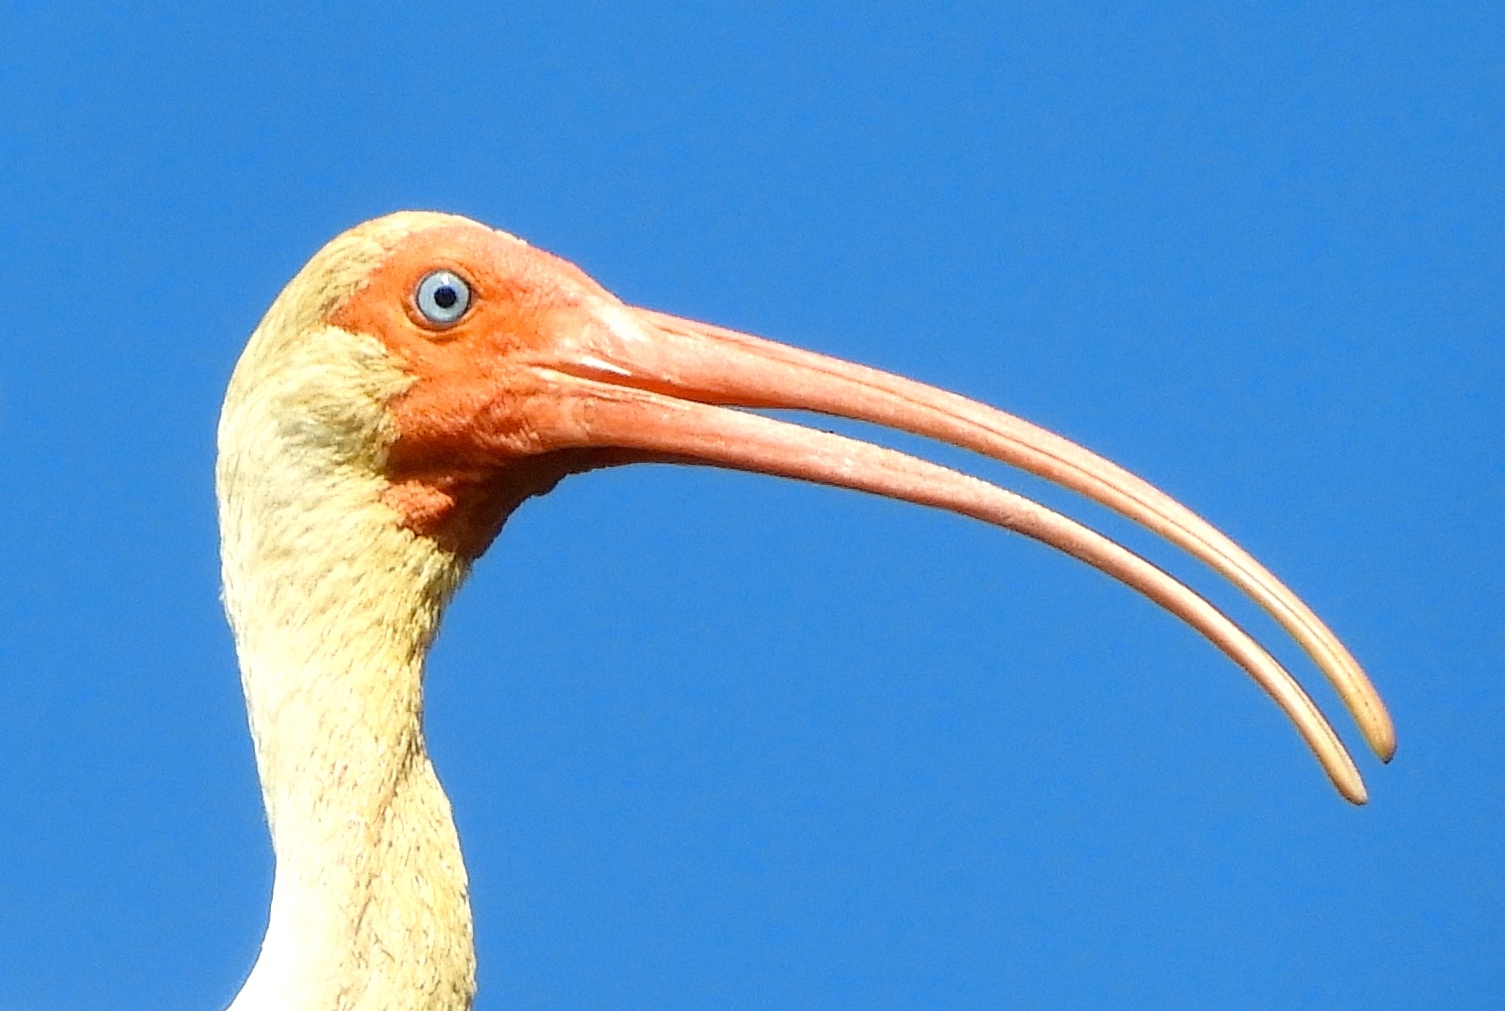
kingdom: Animalia
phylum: Chordata
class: Aves
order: Pelecaniformes
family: Threskiornithidae
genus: Eudocimus
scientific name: Eudocimus albus
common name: White ibis
